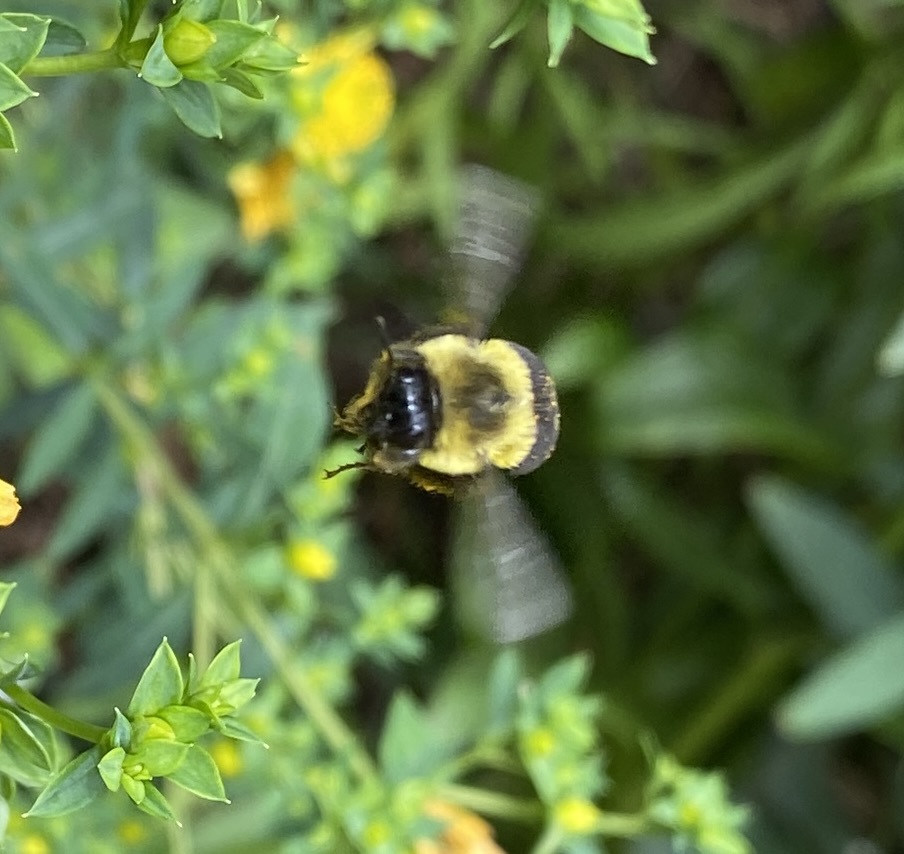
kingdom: Animalia
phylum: Arthropoda
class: Insecta
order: Hymenoptera
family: Apidae
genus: Bombus
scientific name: Bombus impatiens
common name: Common eastern bumble bee
